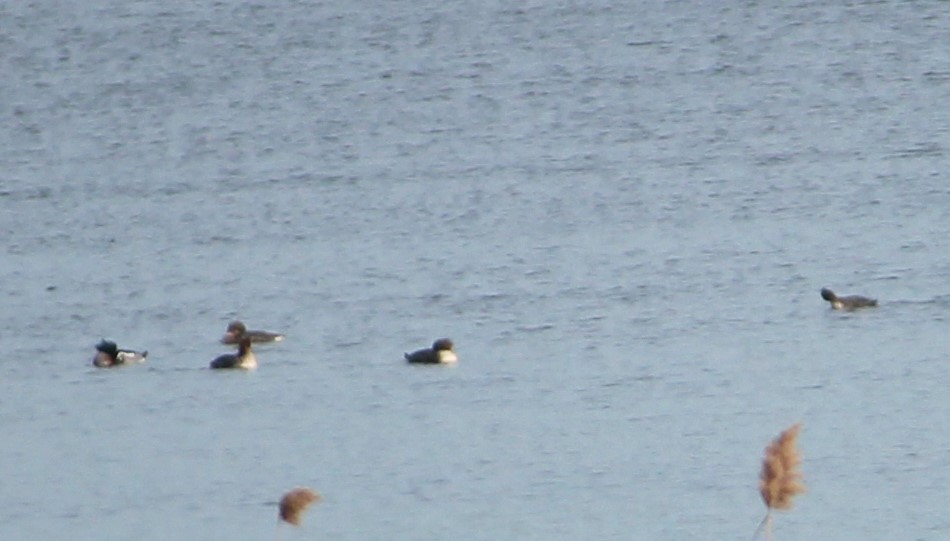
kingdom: Animalia
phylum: Chordata
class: Aves
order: Anseriformes
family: Anatidae
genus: Mergus
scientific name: Mergus serrator
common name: Red-breasted merganser
